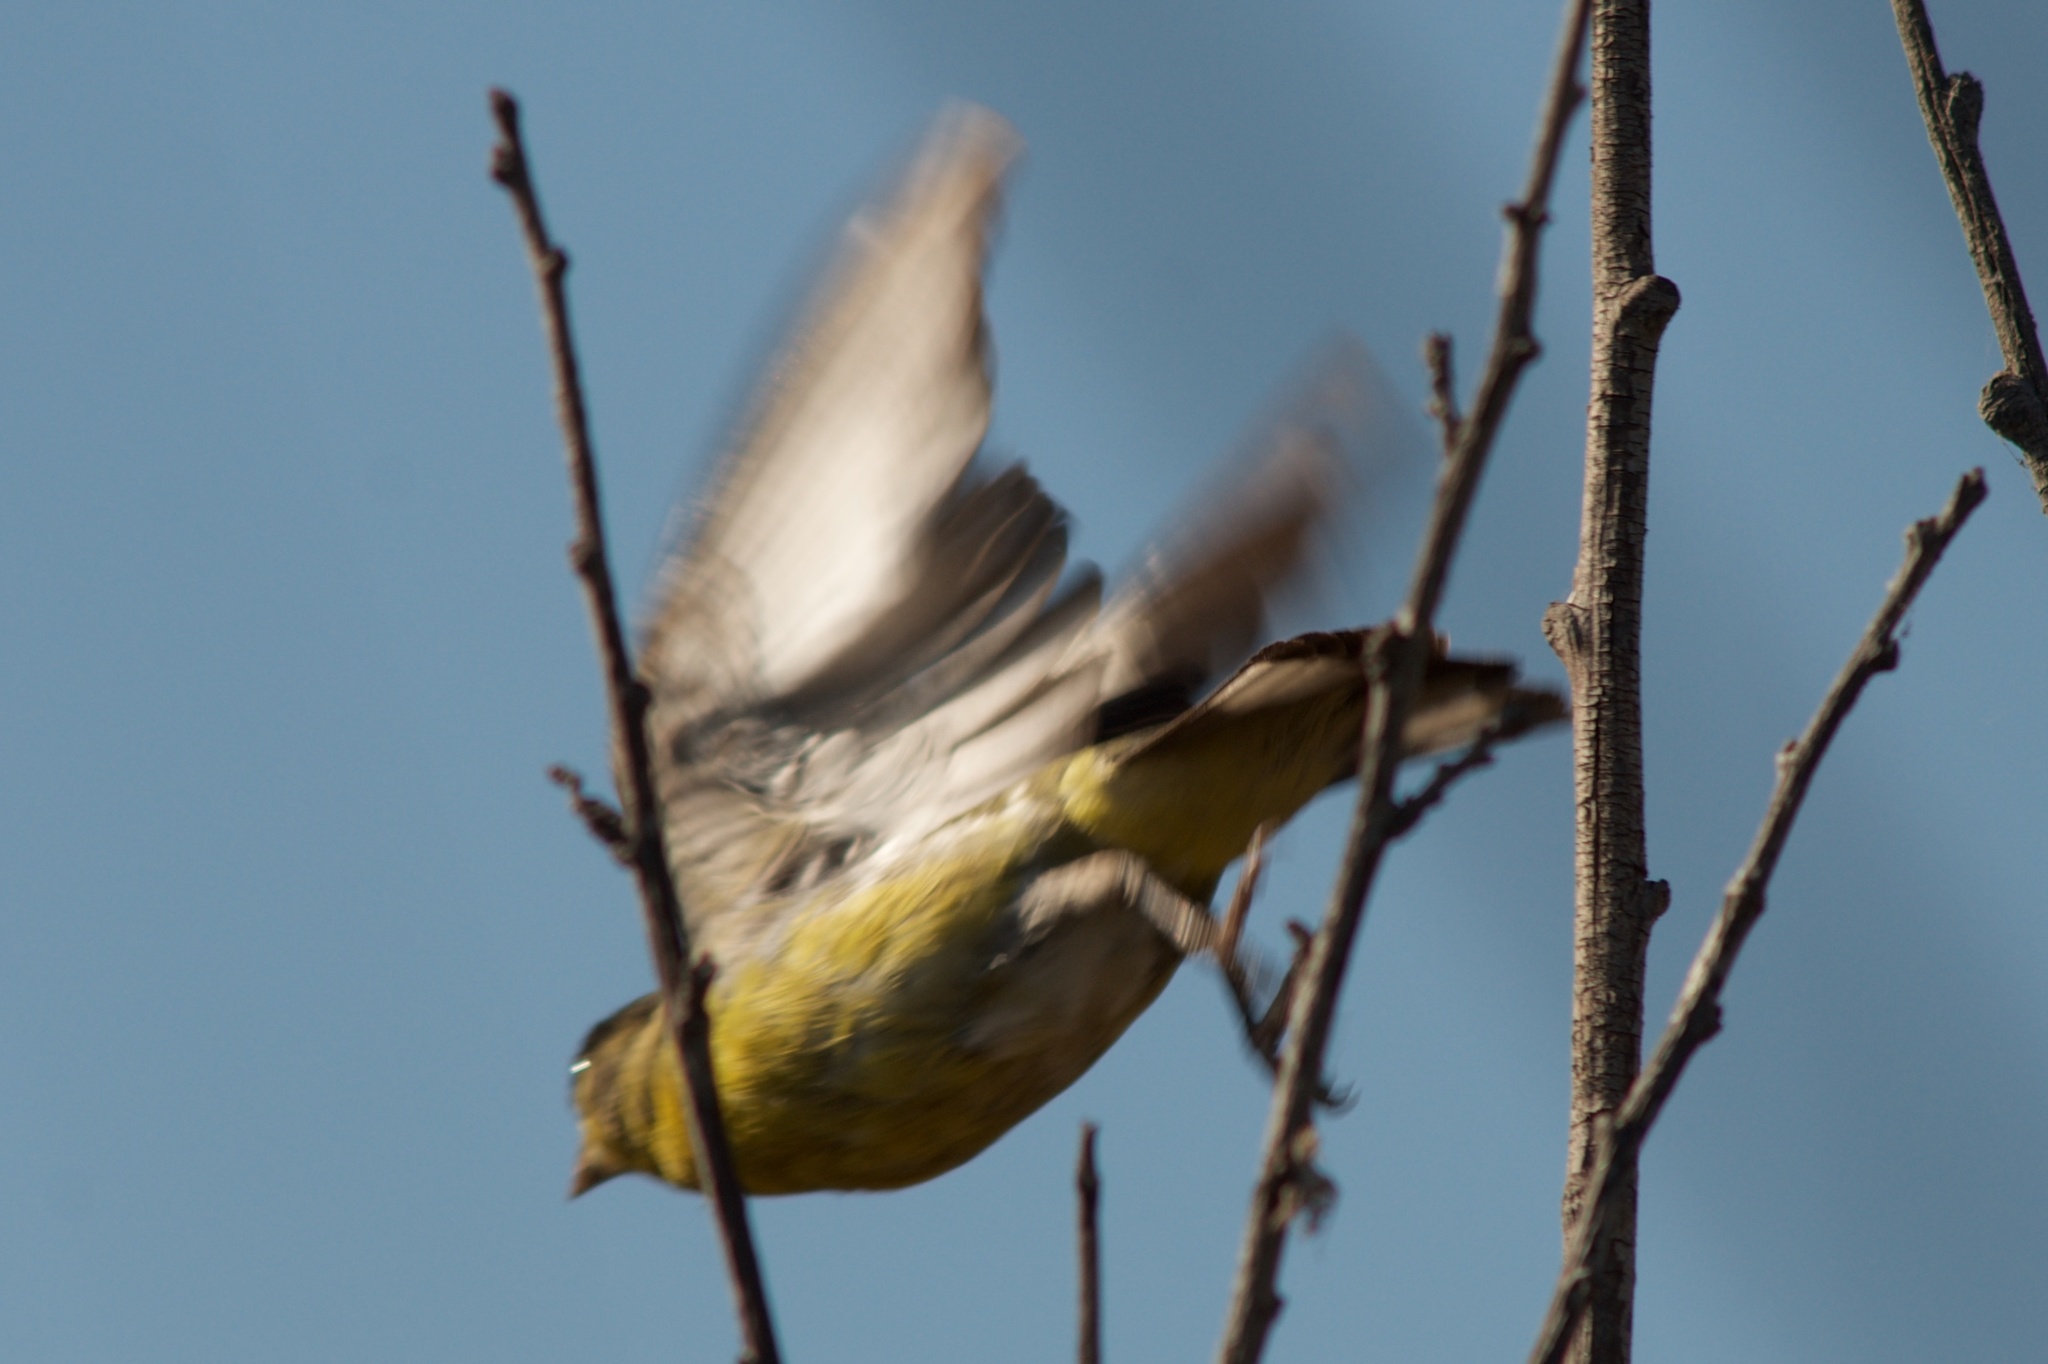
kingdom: Animalia
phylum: Chordata
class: Aves
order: Passeriformes
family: Fringillidae
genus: Spinus
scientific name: Spinus psaltria
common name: Lesser goldfinch
